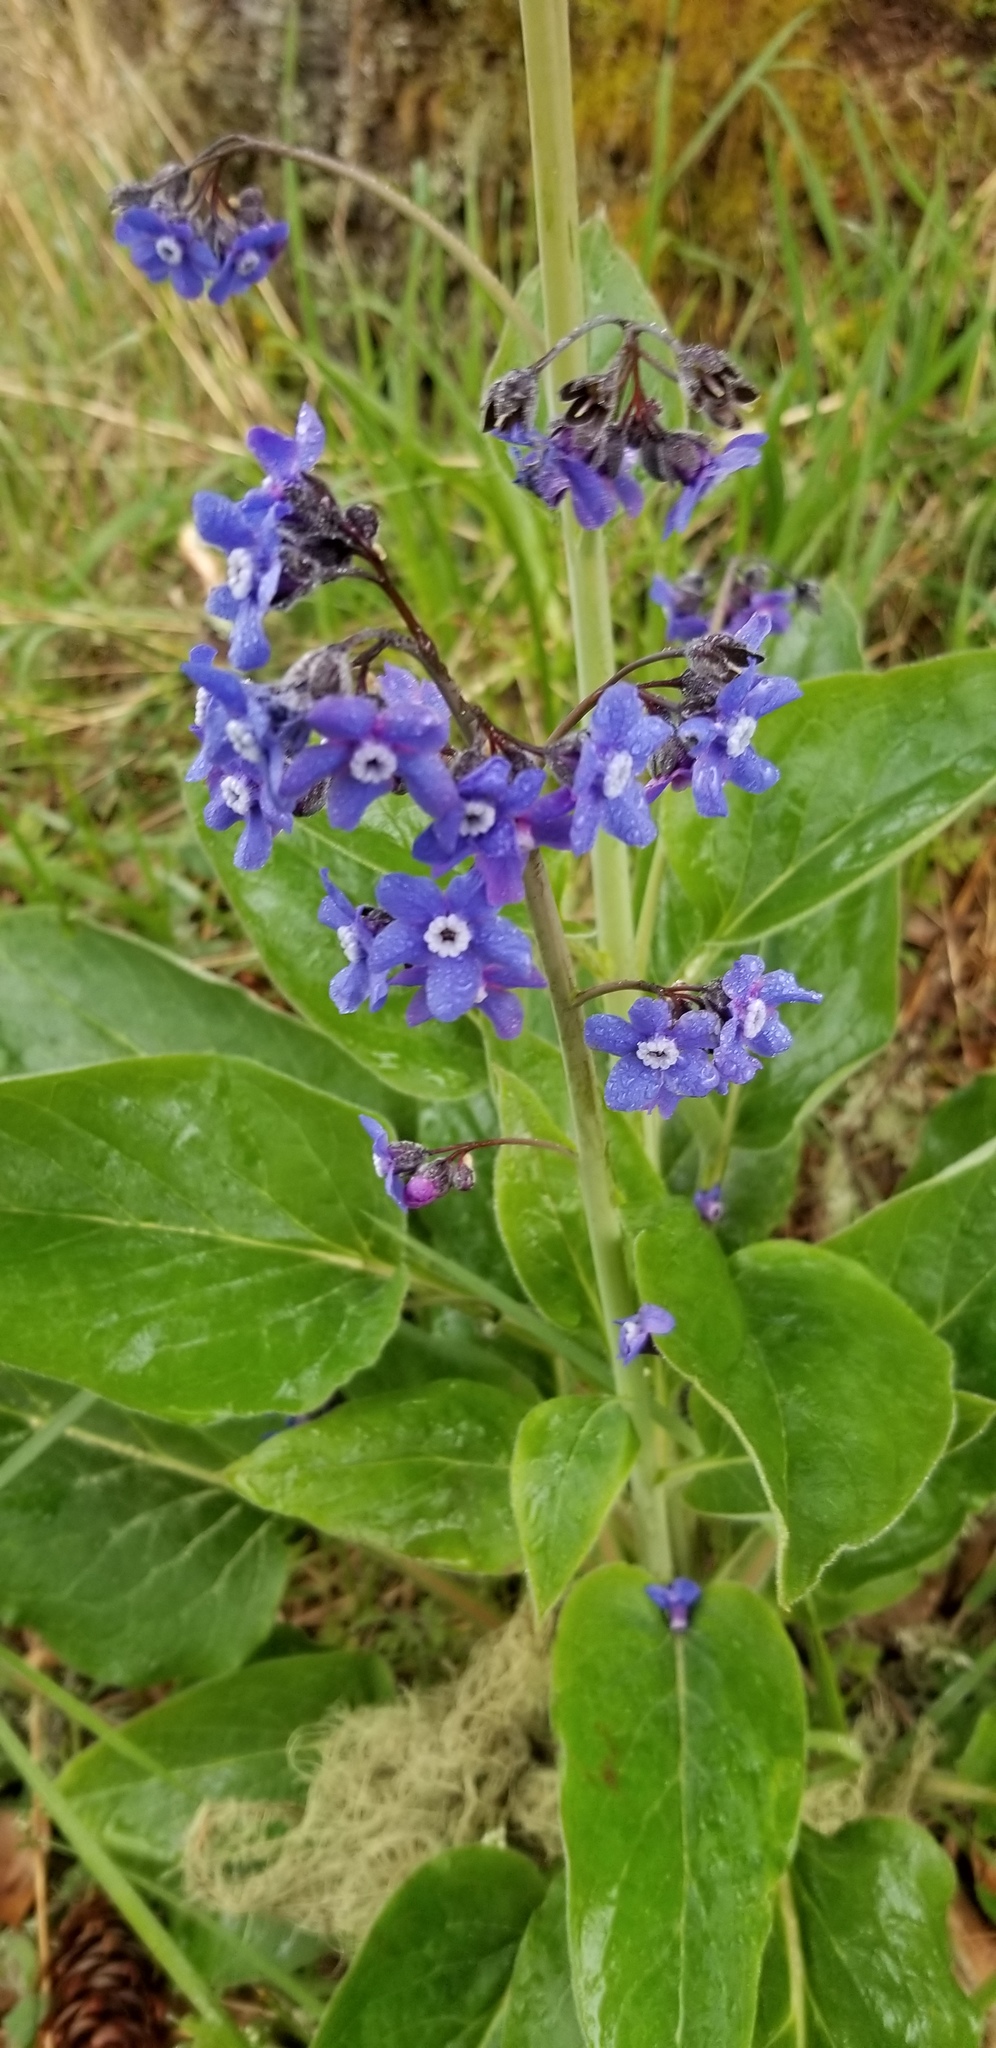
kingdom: Plantae
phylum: Tracheophyta
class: Magnoliopsida
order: Boraginales
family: Boraginaceae
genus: Adelinia
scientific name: Adelinia grande
